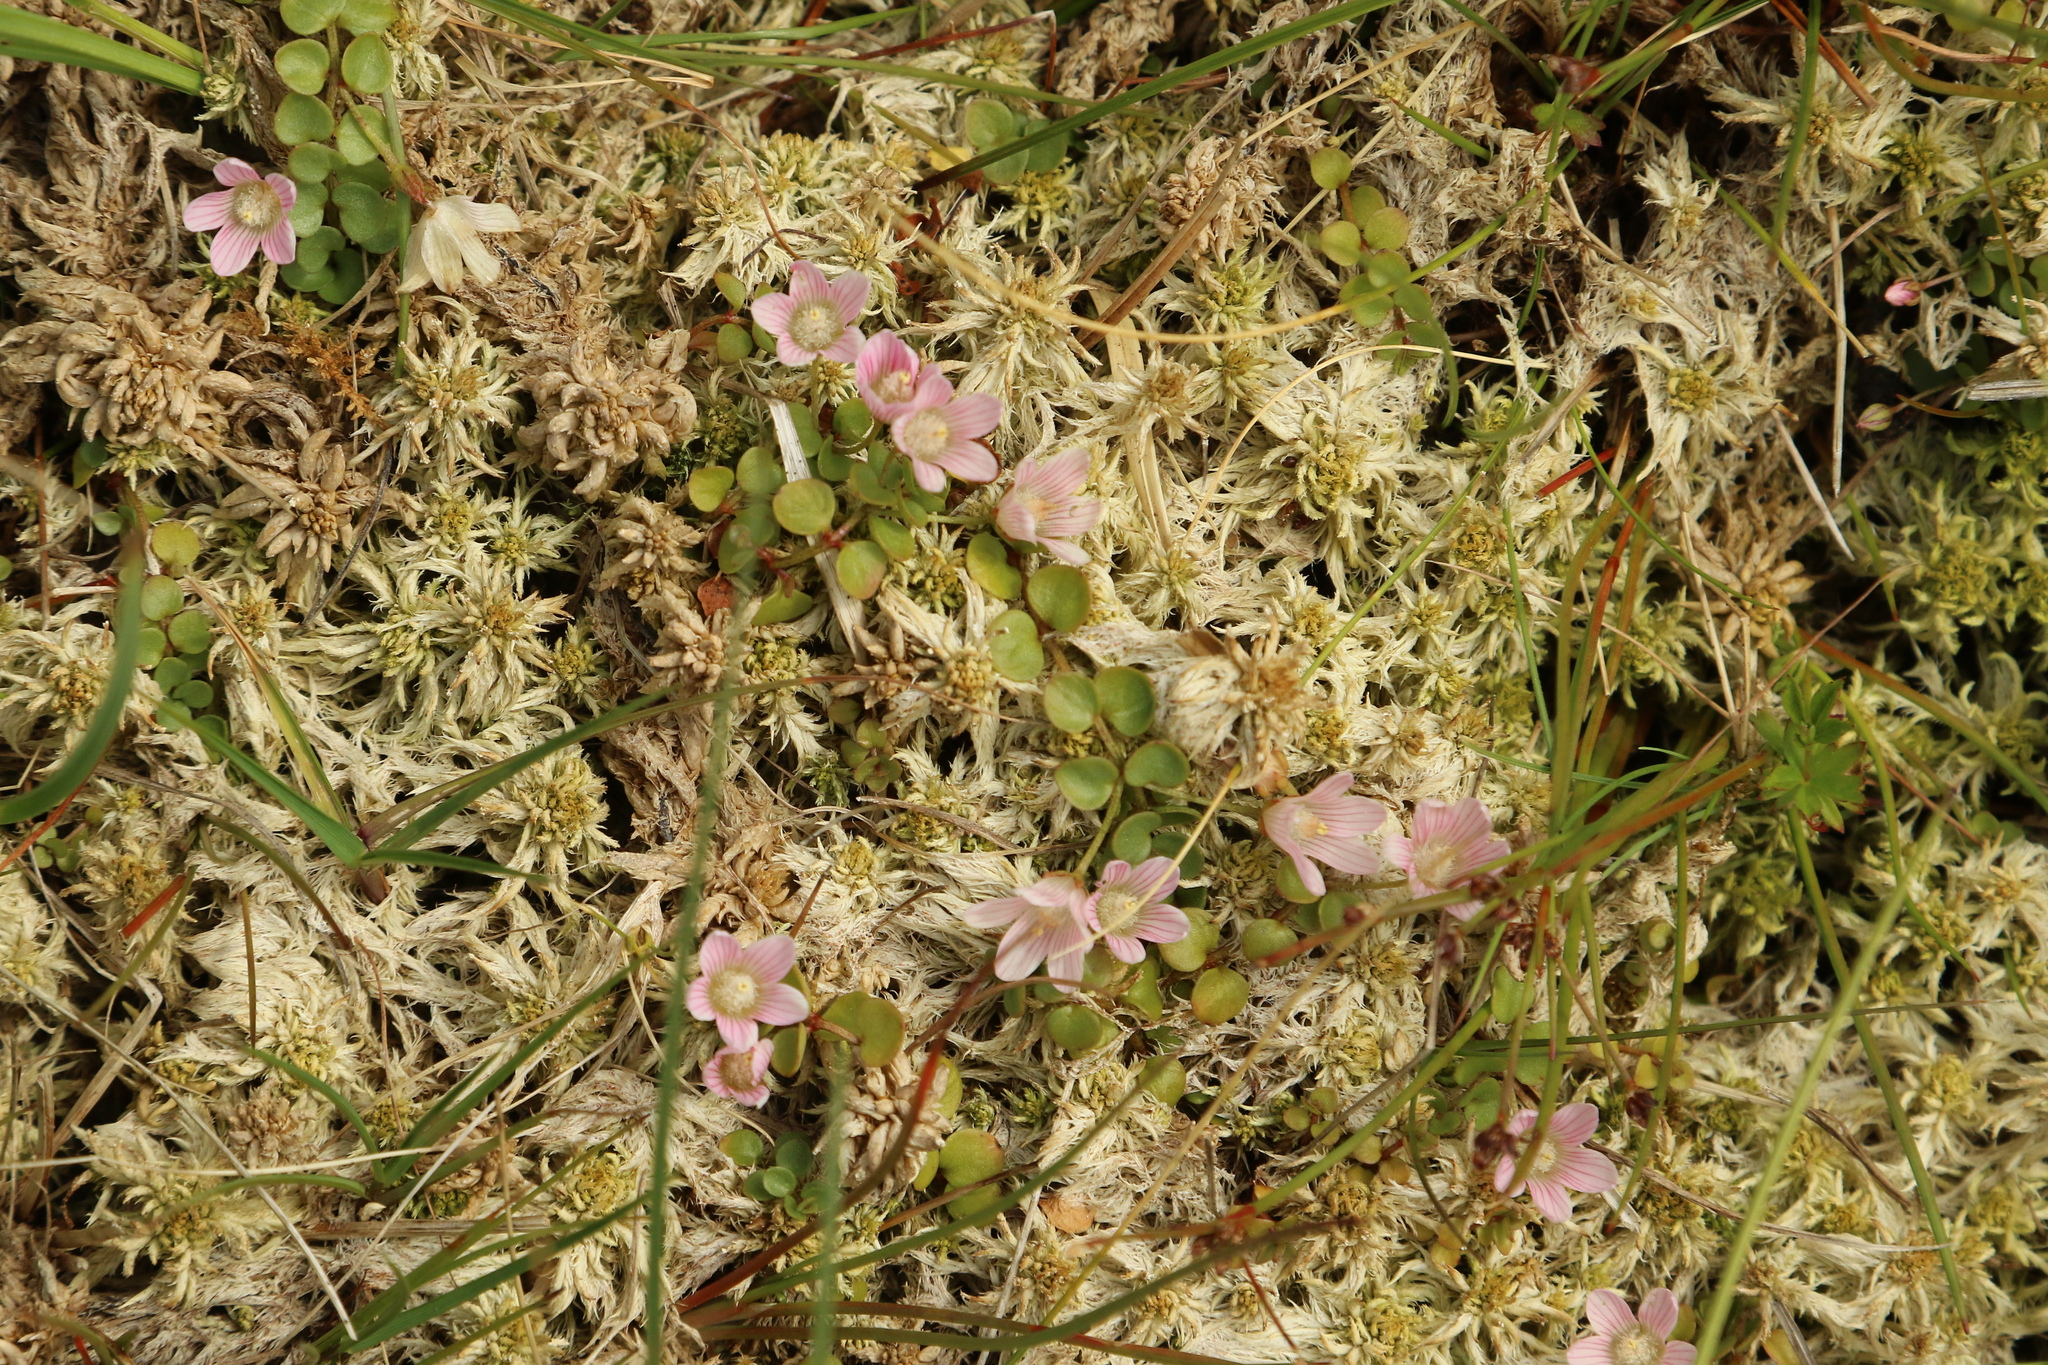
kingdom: Plantae
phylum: Tracheophyta
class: Magnoliopsida
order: Ericales
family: Primulaceae
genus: Lysimachia
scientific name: Lysimachia tenella
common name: European bog pimpernel
